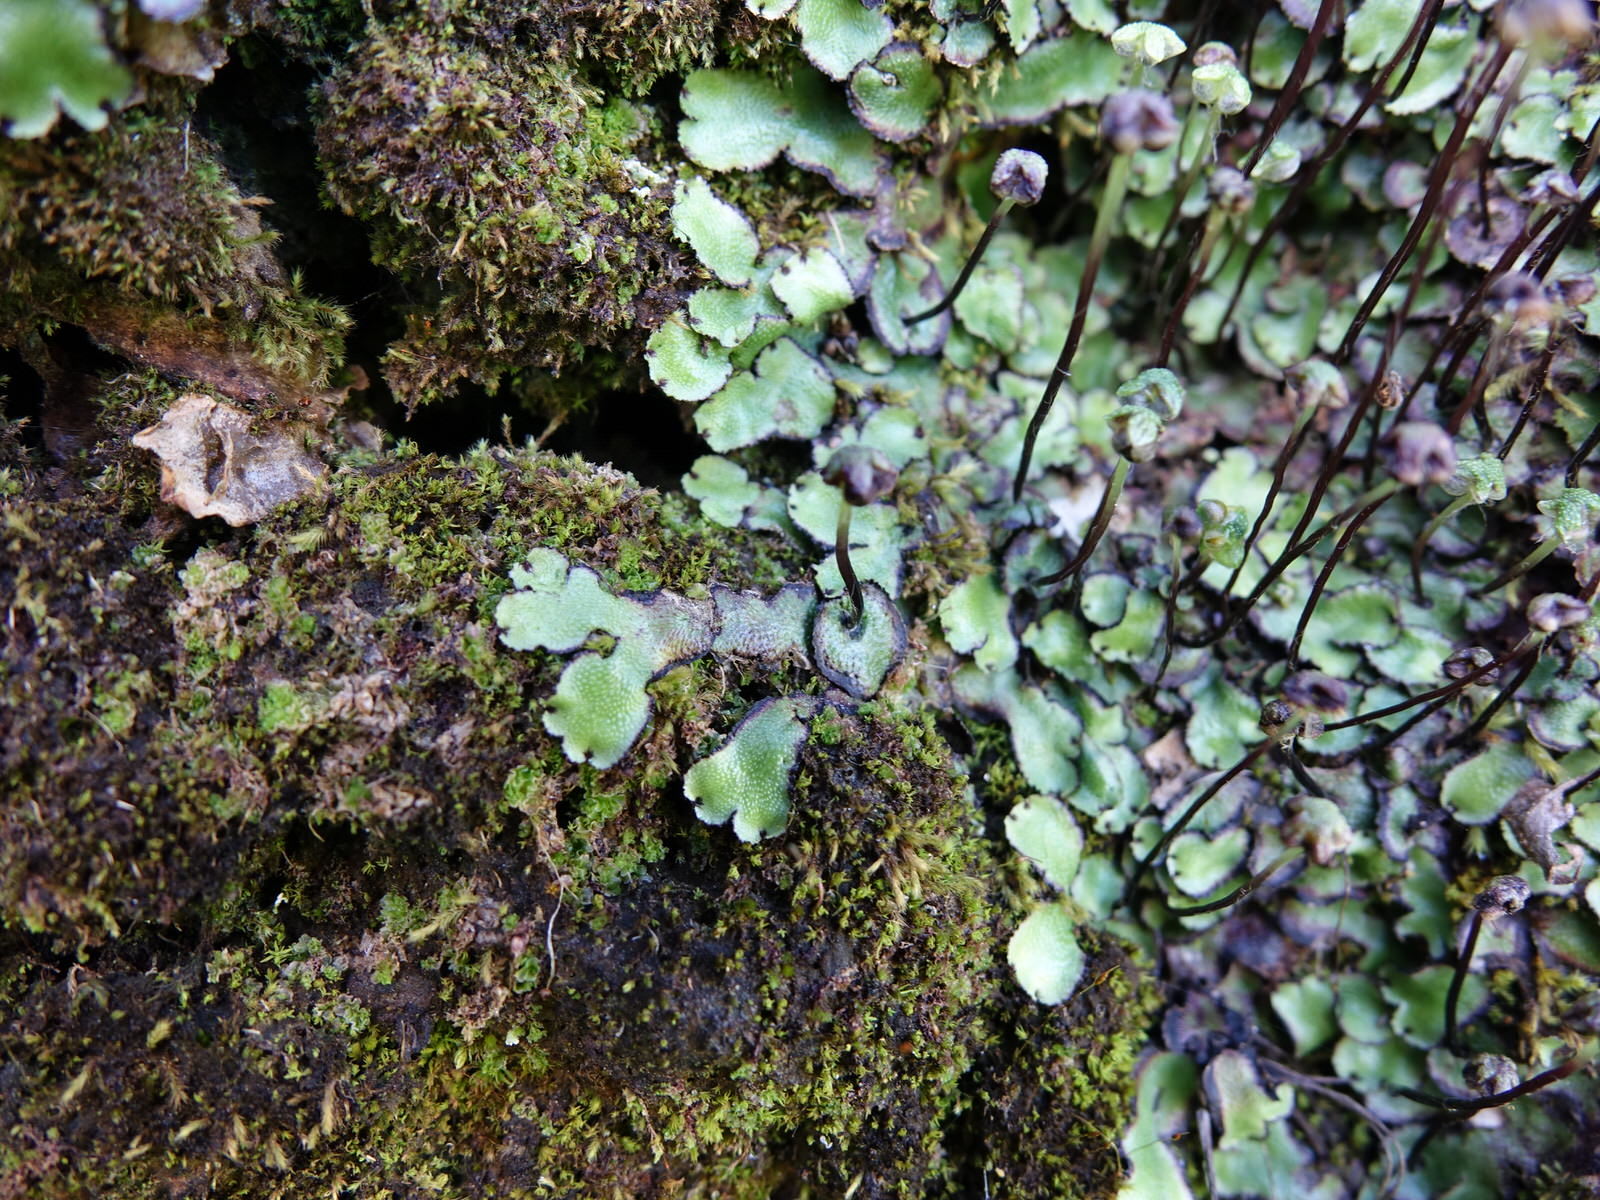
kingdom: Plantae
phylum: Marchantiophyta
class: Marchantiopsida
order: Marchantiales
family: Marchantiaceae
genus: Marchantia
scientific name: Marchantia berteroana
